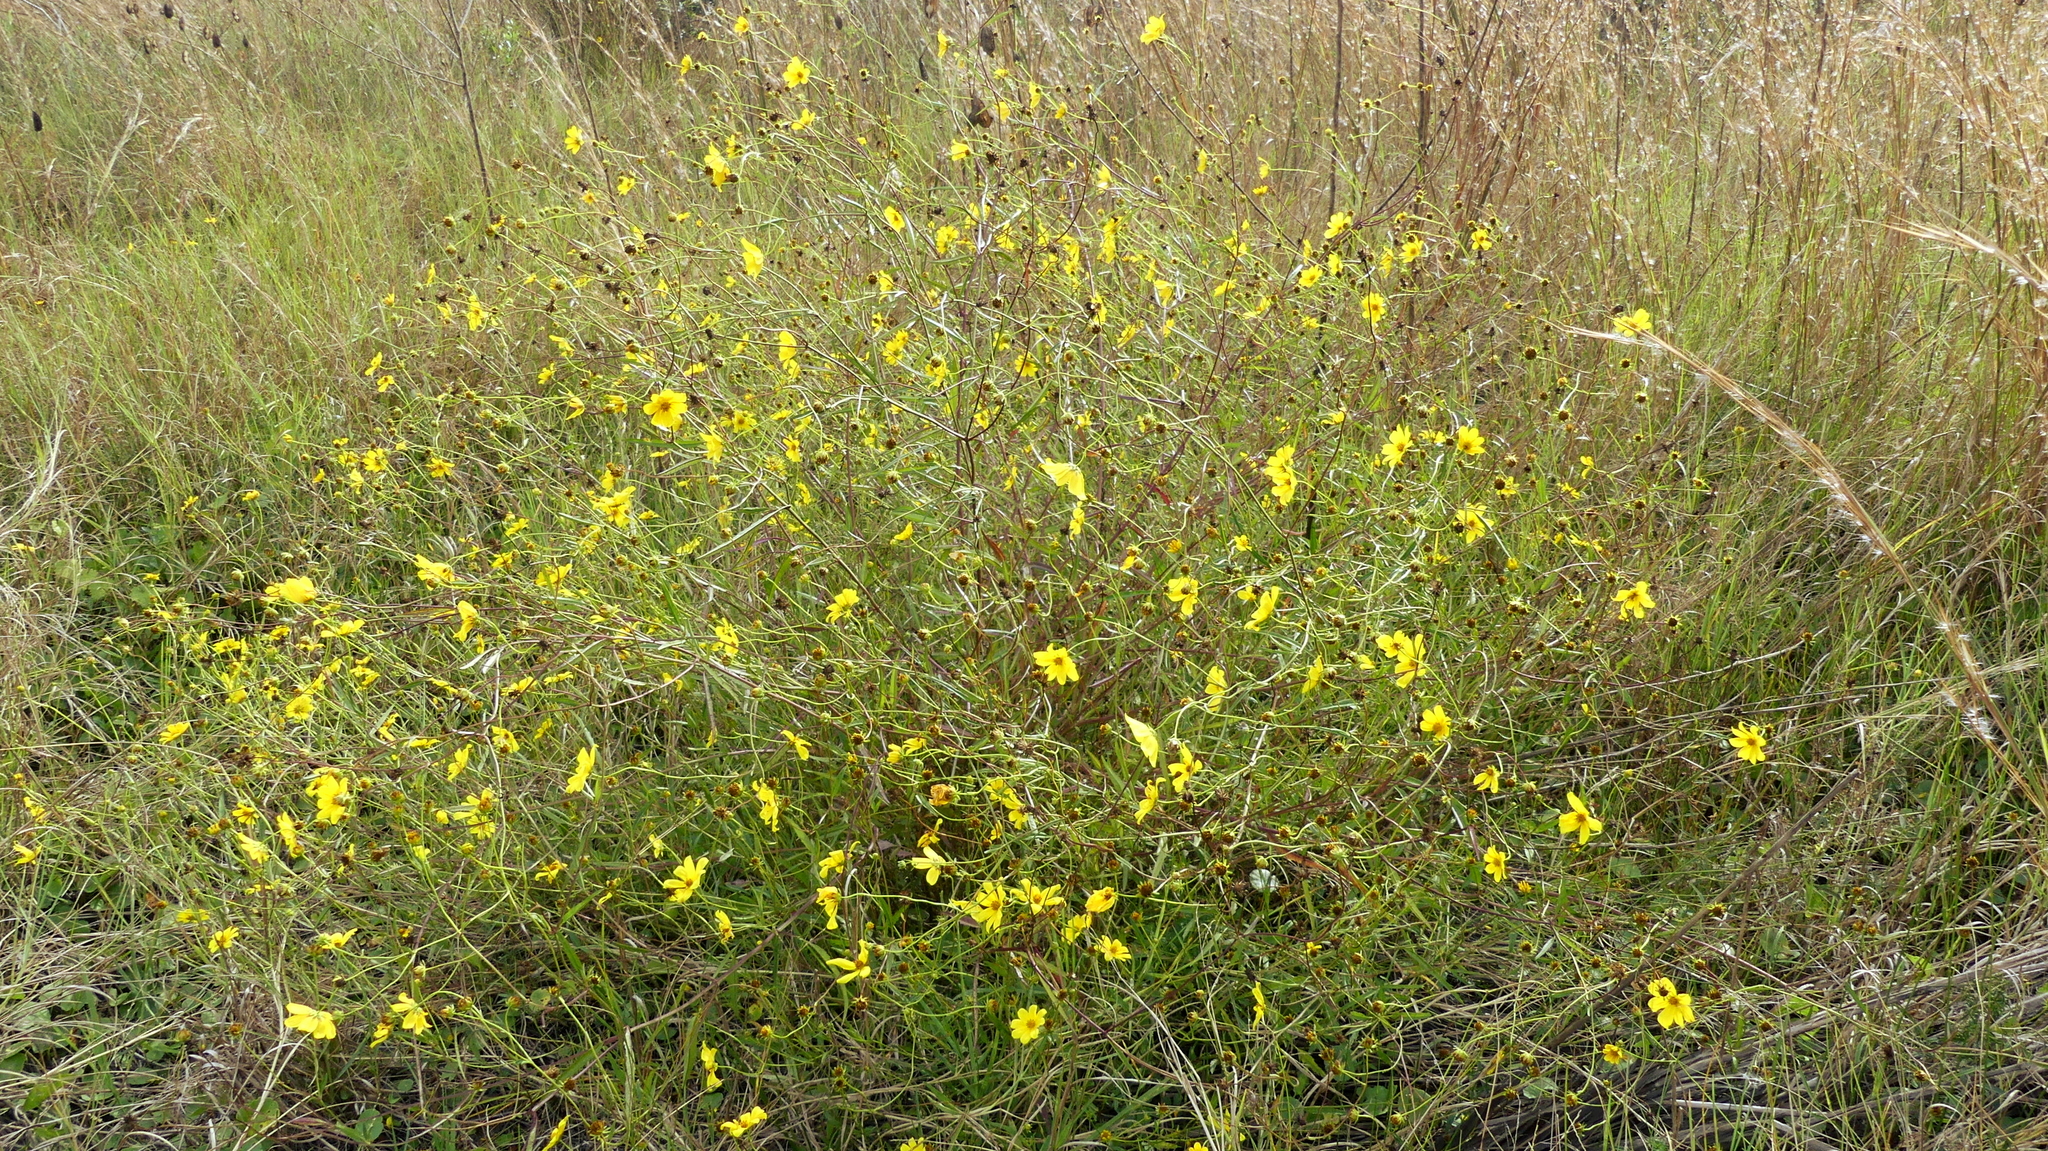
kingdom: Plantae
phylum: Tracheophyta
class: Magnoliopsida
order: Asterales
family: Asteraceae
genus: Bidens
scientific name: Bidens mitis
